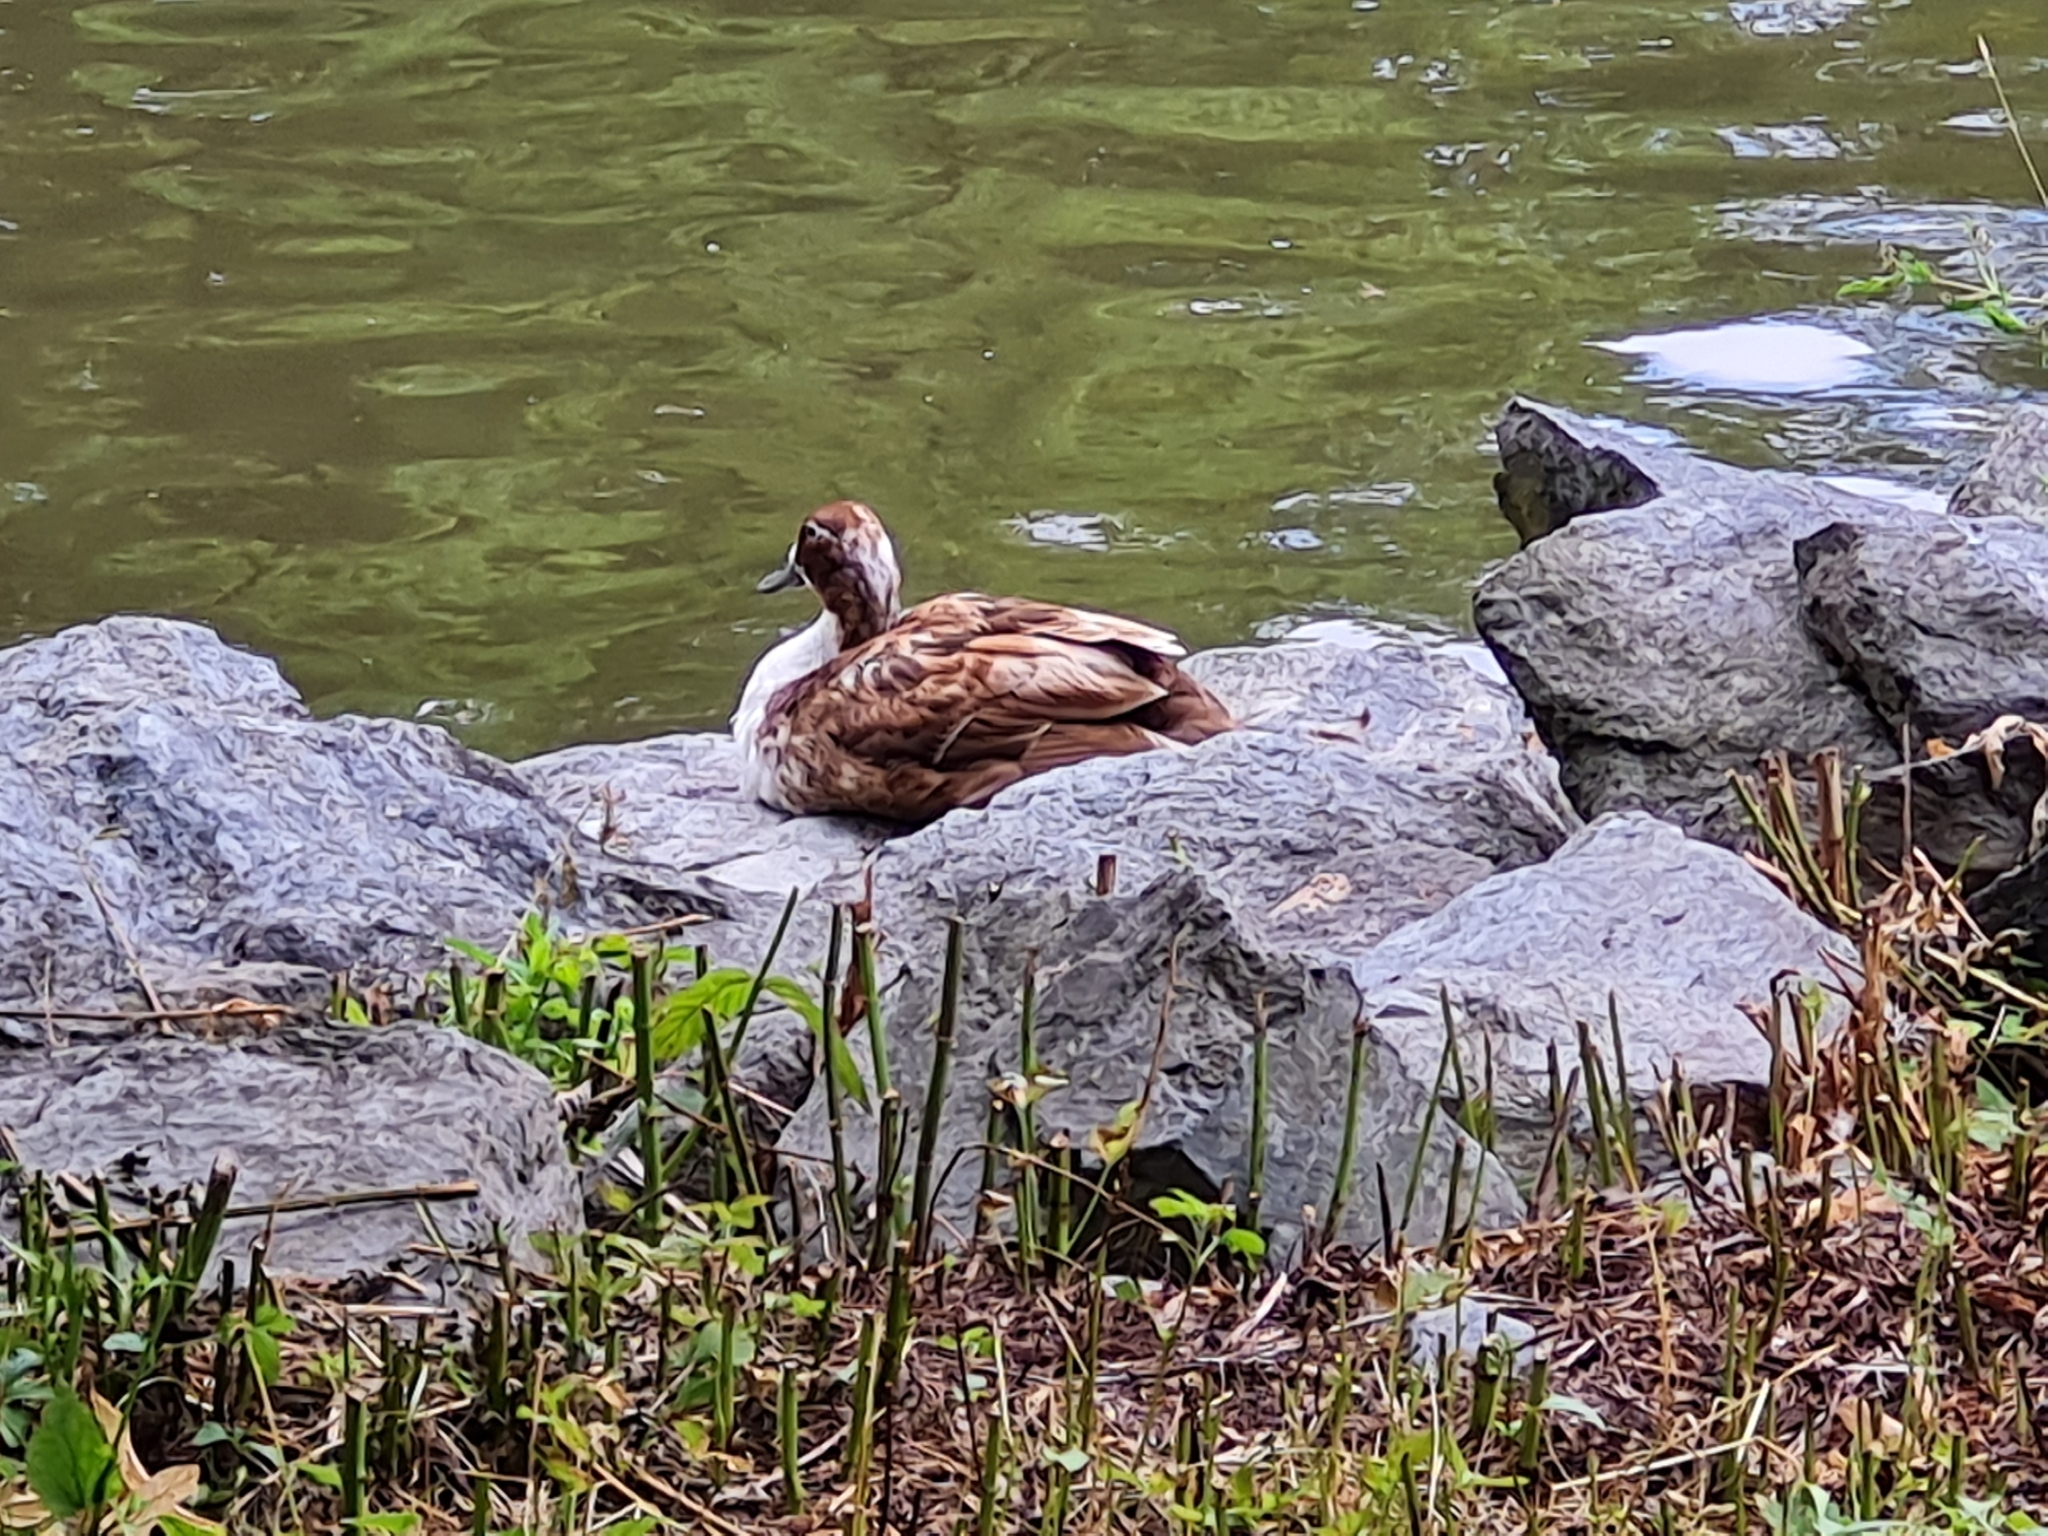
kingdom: Animalia
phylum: Chordata
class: Aves
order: Anseriformes
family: Anatidae
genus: Anas
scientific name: Anas platyrhynchos
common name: Mallard
